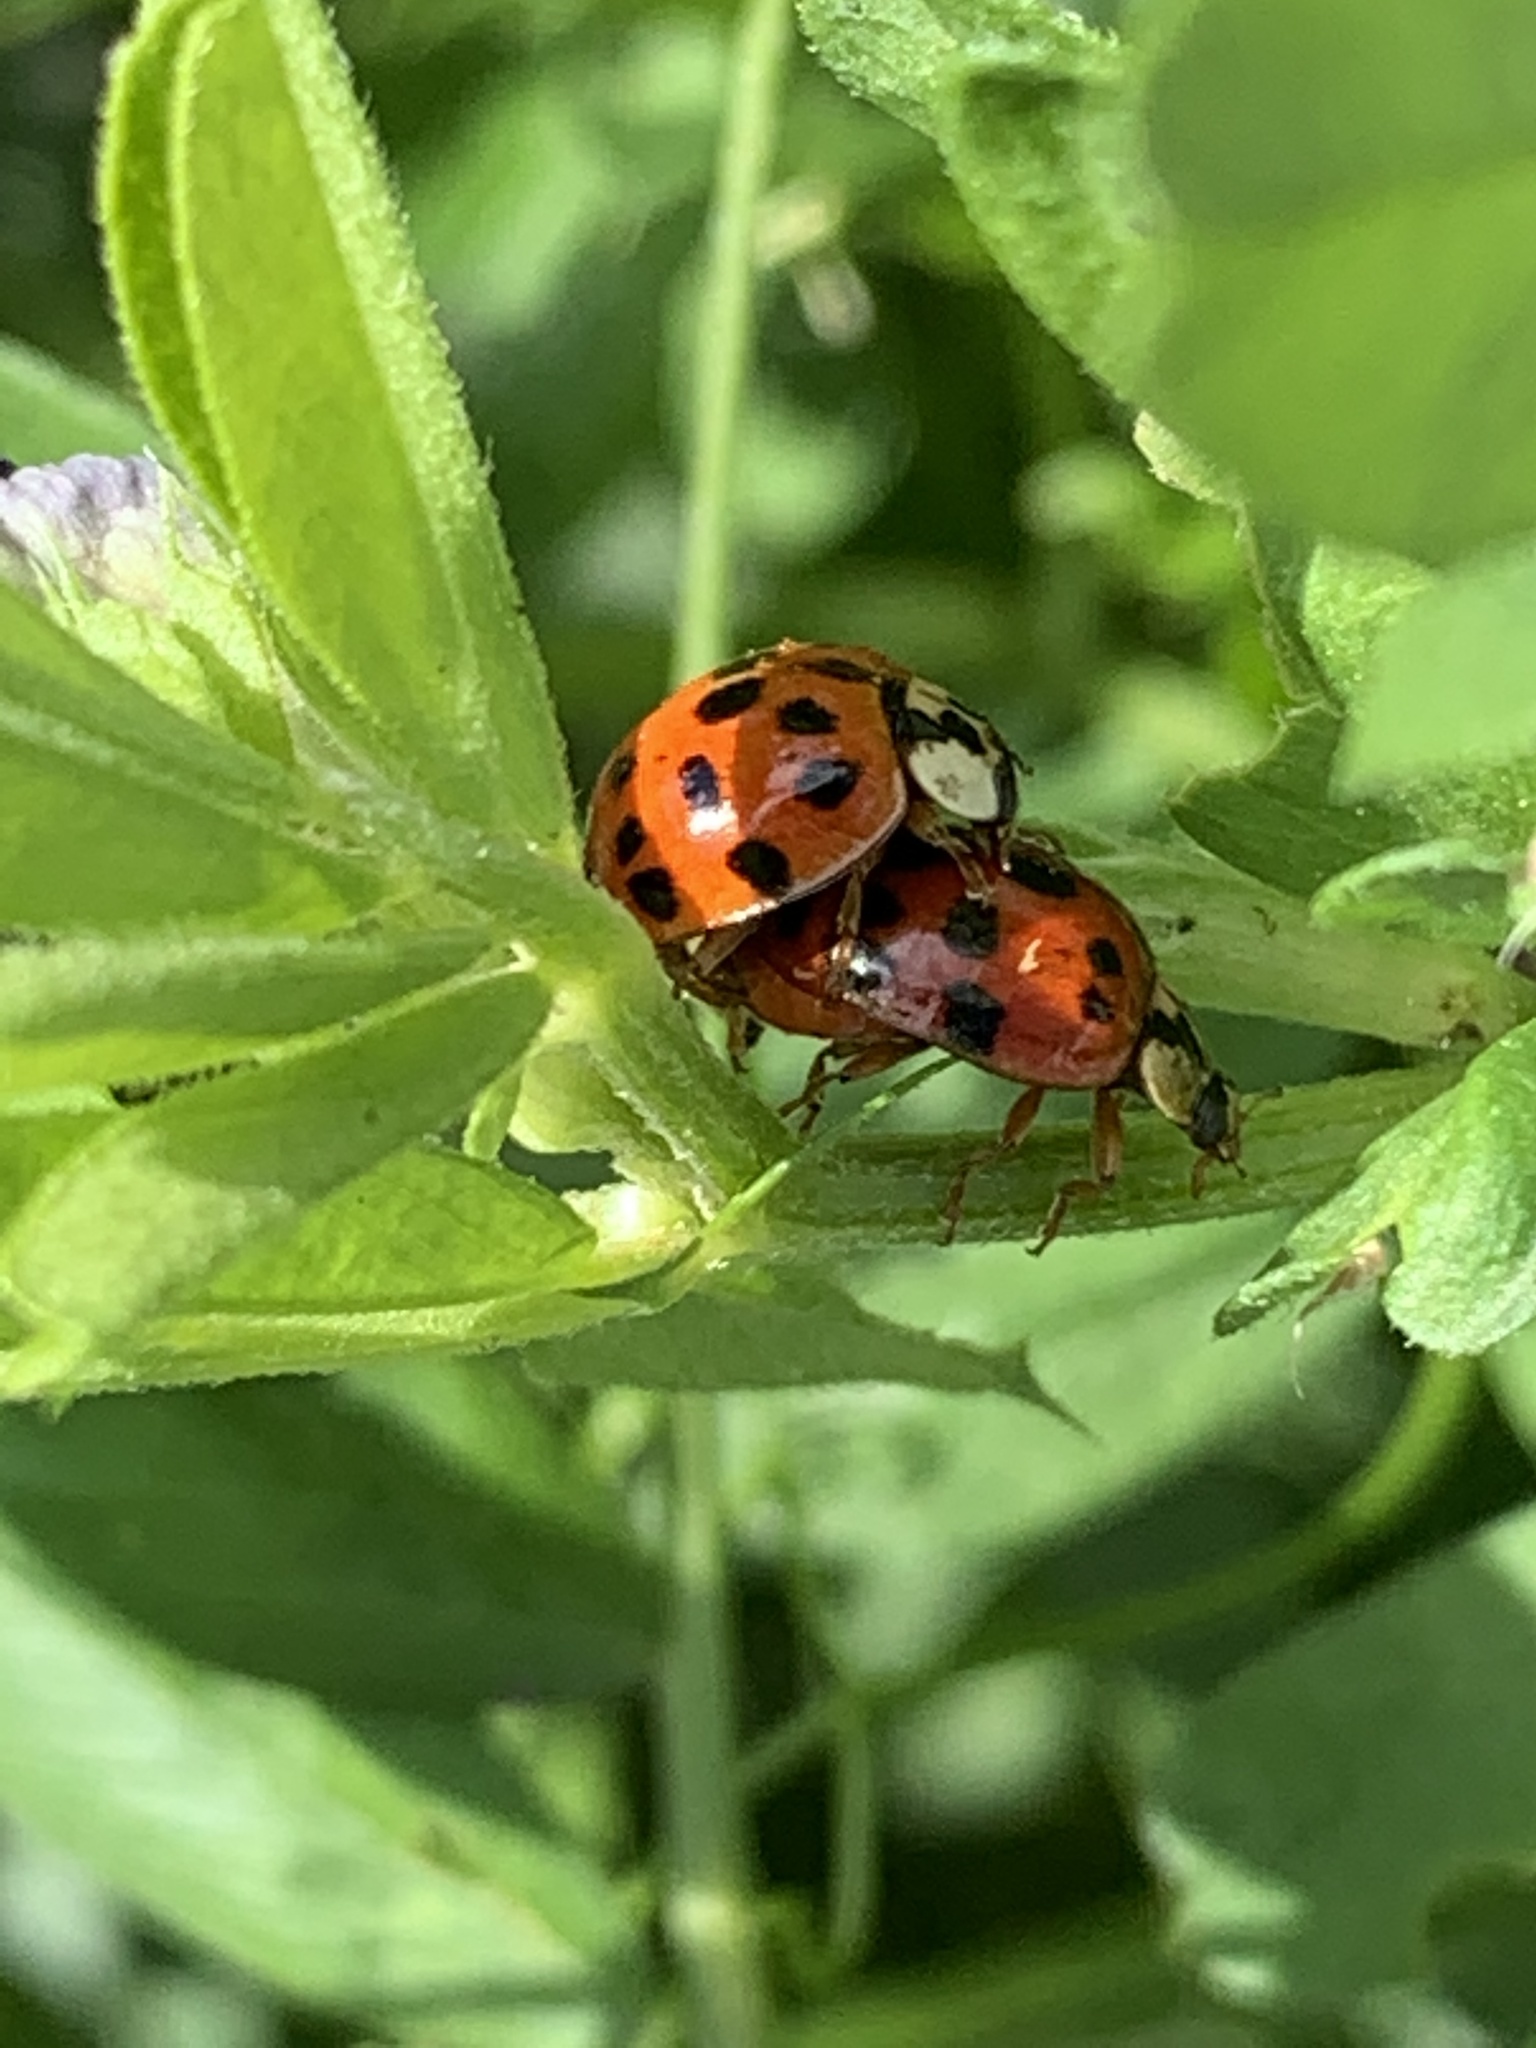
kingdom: Animalia
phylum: Arthropoda
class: Insecta
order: Coleoptera
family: Coccinellidae
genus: Harmonia
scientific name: Harmonia axyridis
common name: Harlequin ladybird
